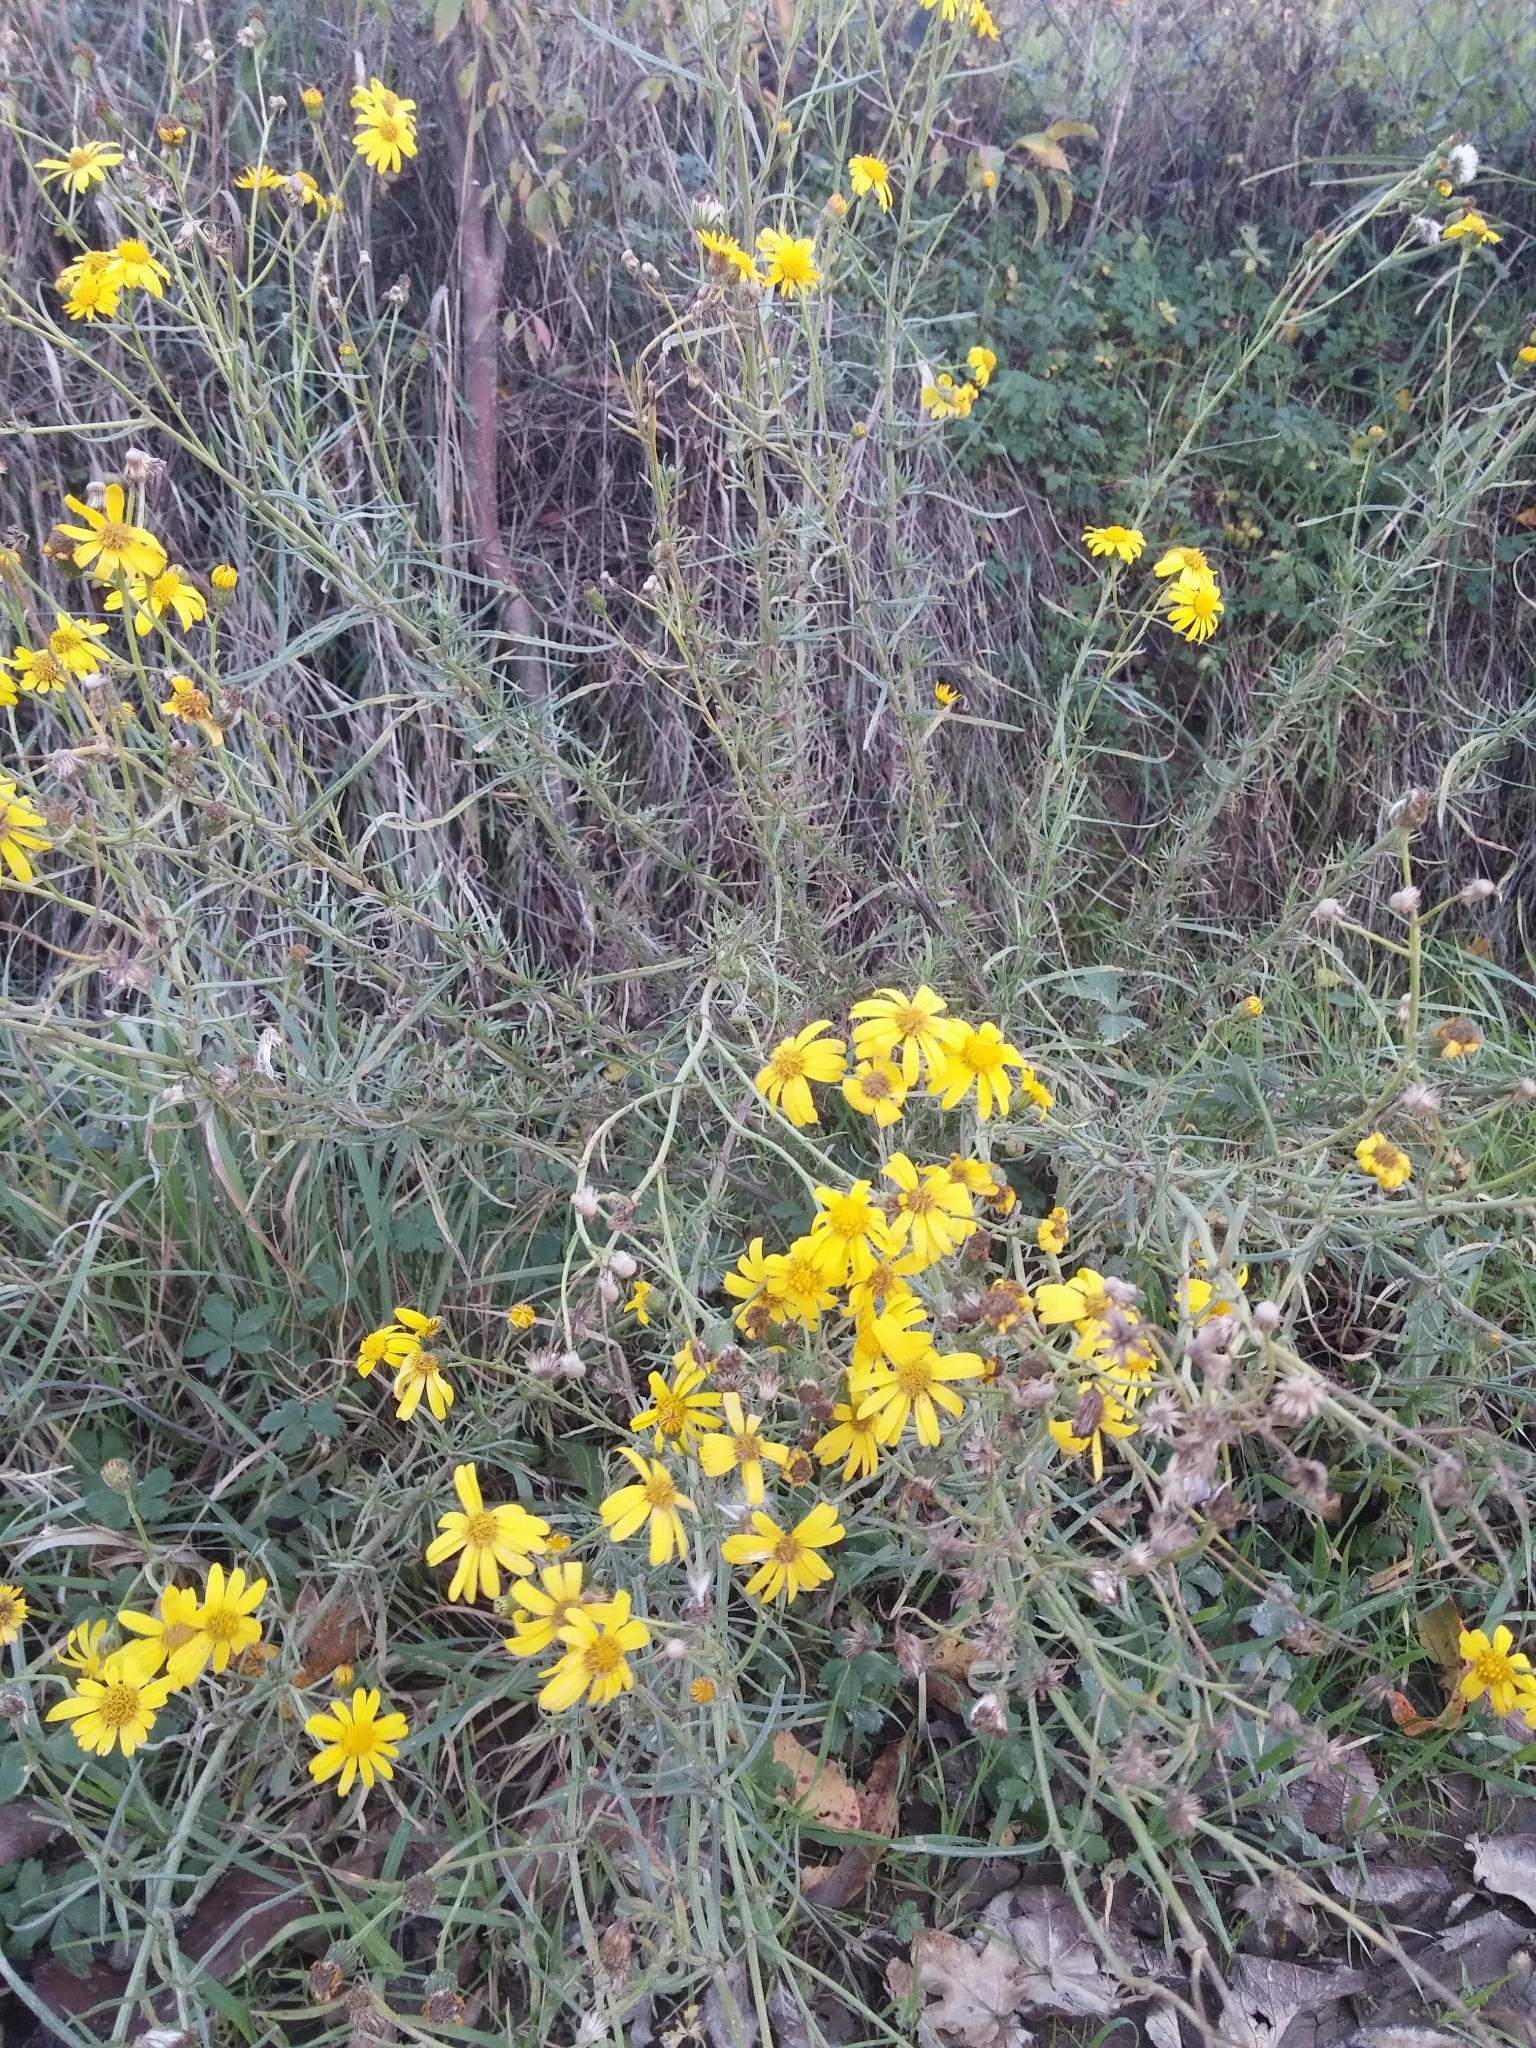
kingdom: Plantae
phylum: Tracheophyta
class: Magnoliopsida
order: Asterales
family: Asteraceae
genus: Senecio
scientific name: Senecio inaequidens
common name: Narrow-leaved ragwort
